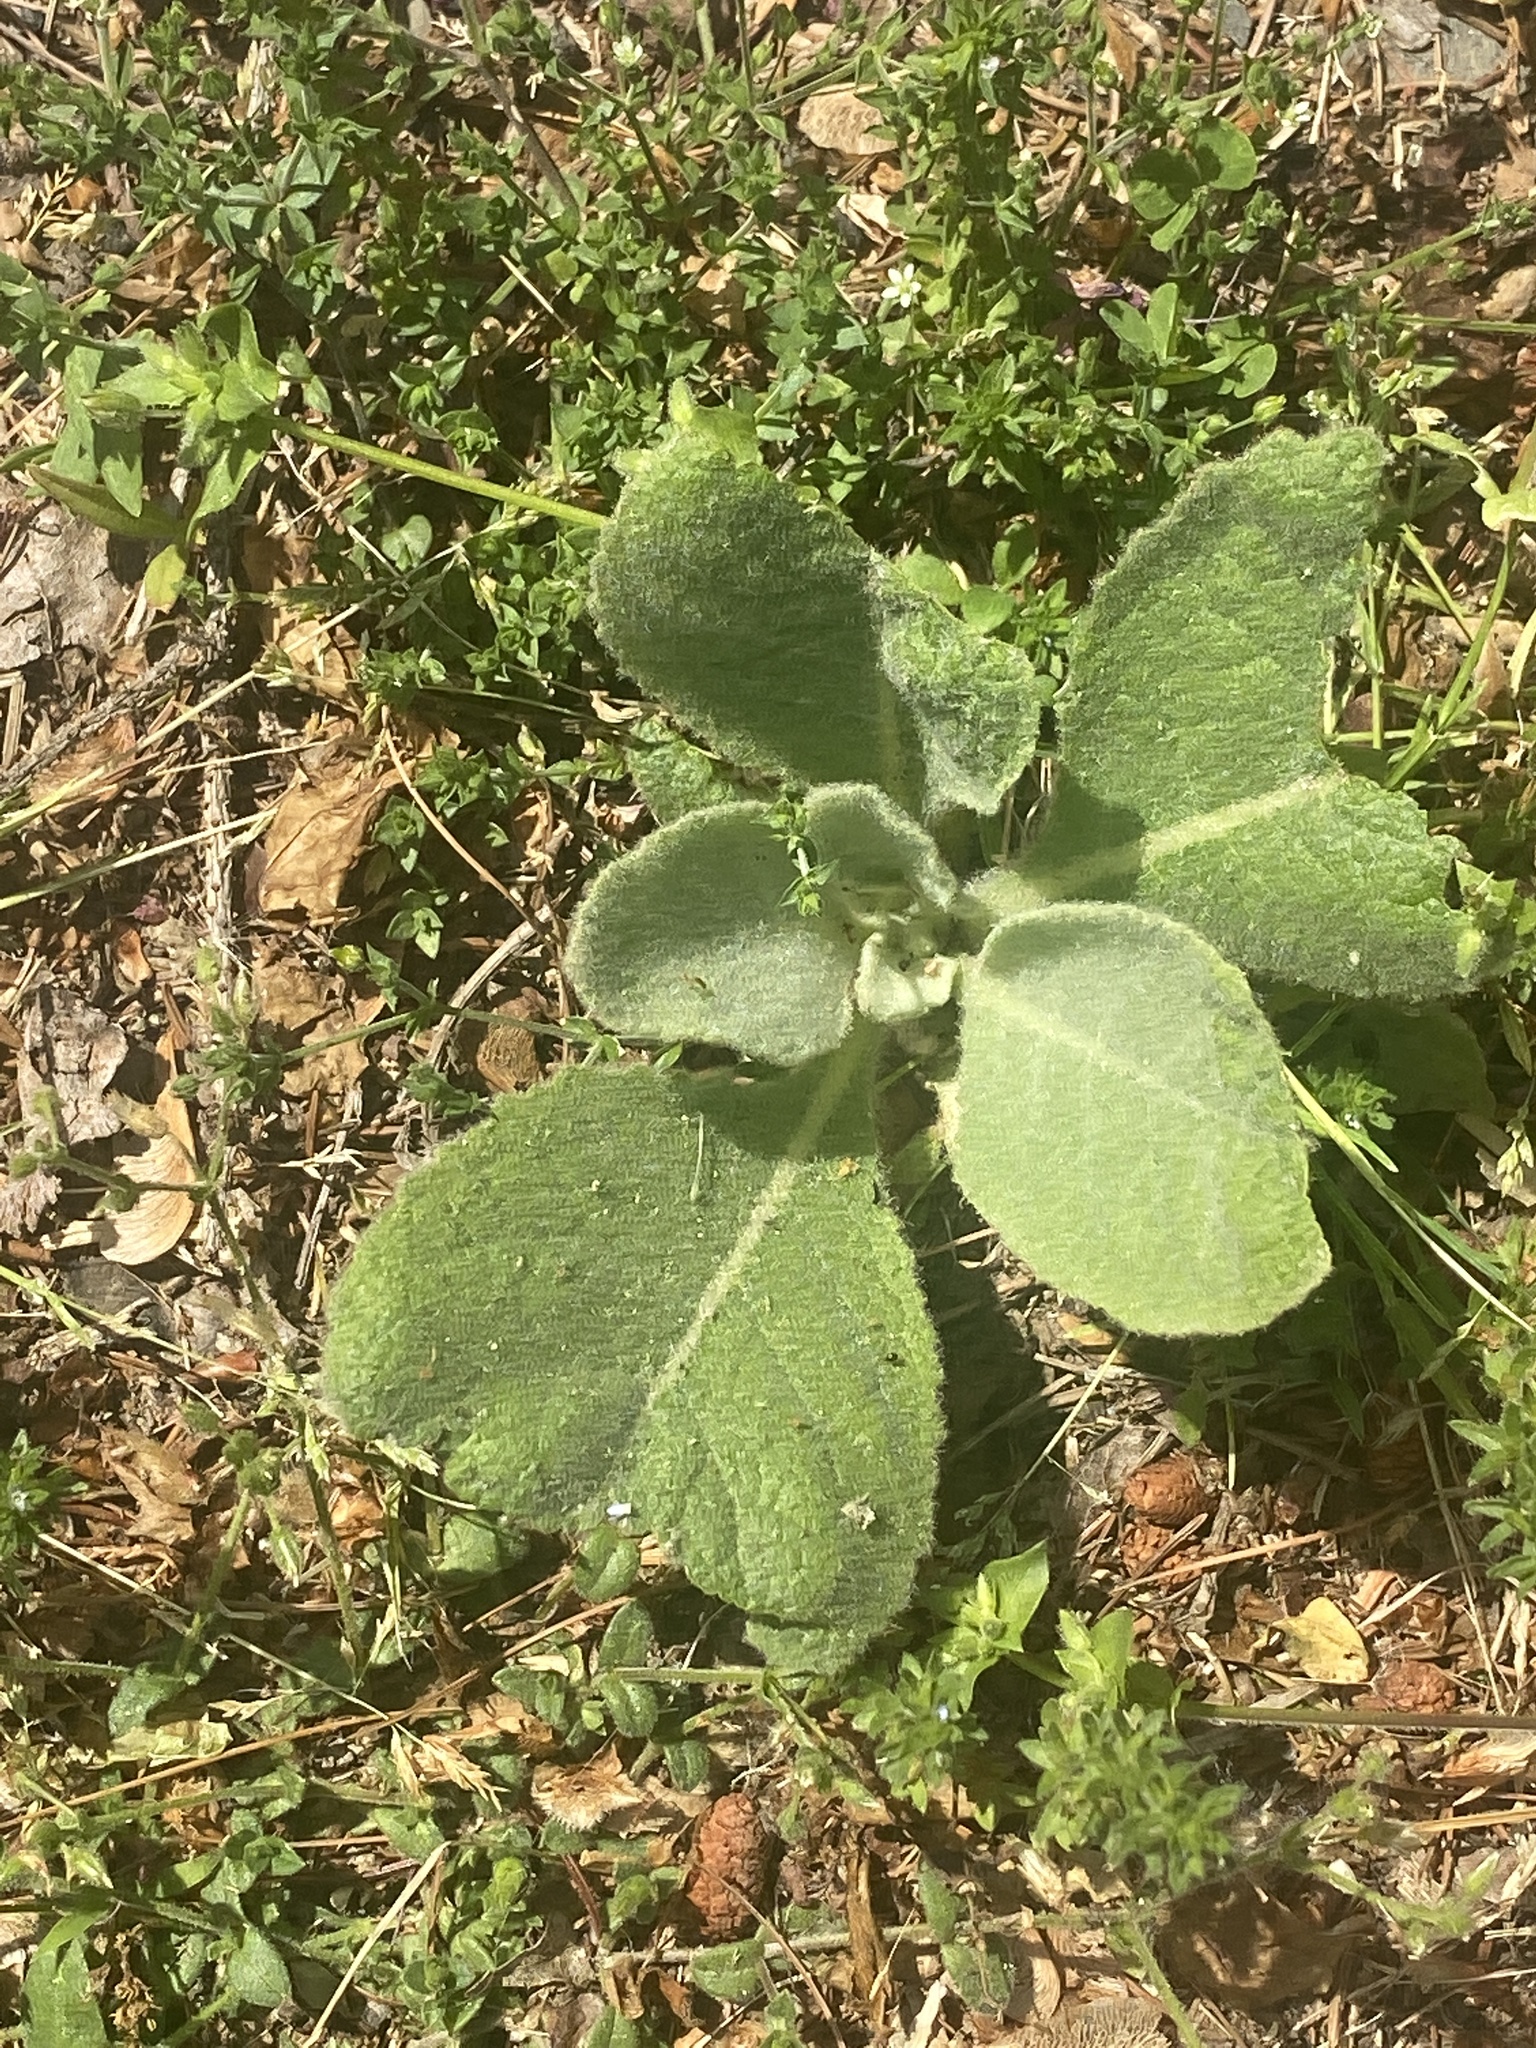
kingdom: Plantae
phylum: Tracheophyta
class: Magnoliopsida
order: Lamiales
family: Scrophulariaceae
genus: Verbascum
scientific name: Verbascum thapsus
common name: Common mullein
